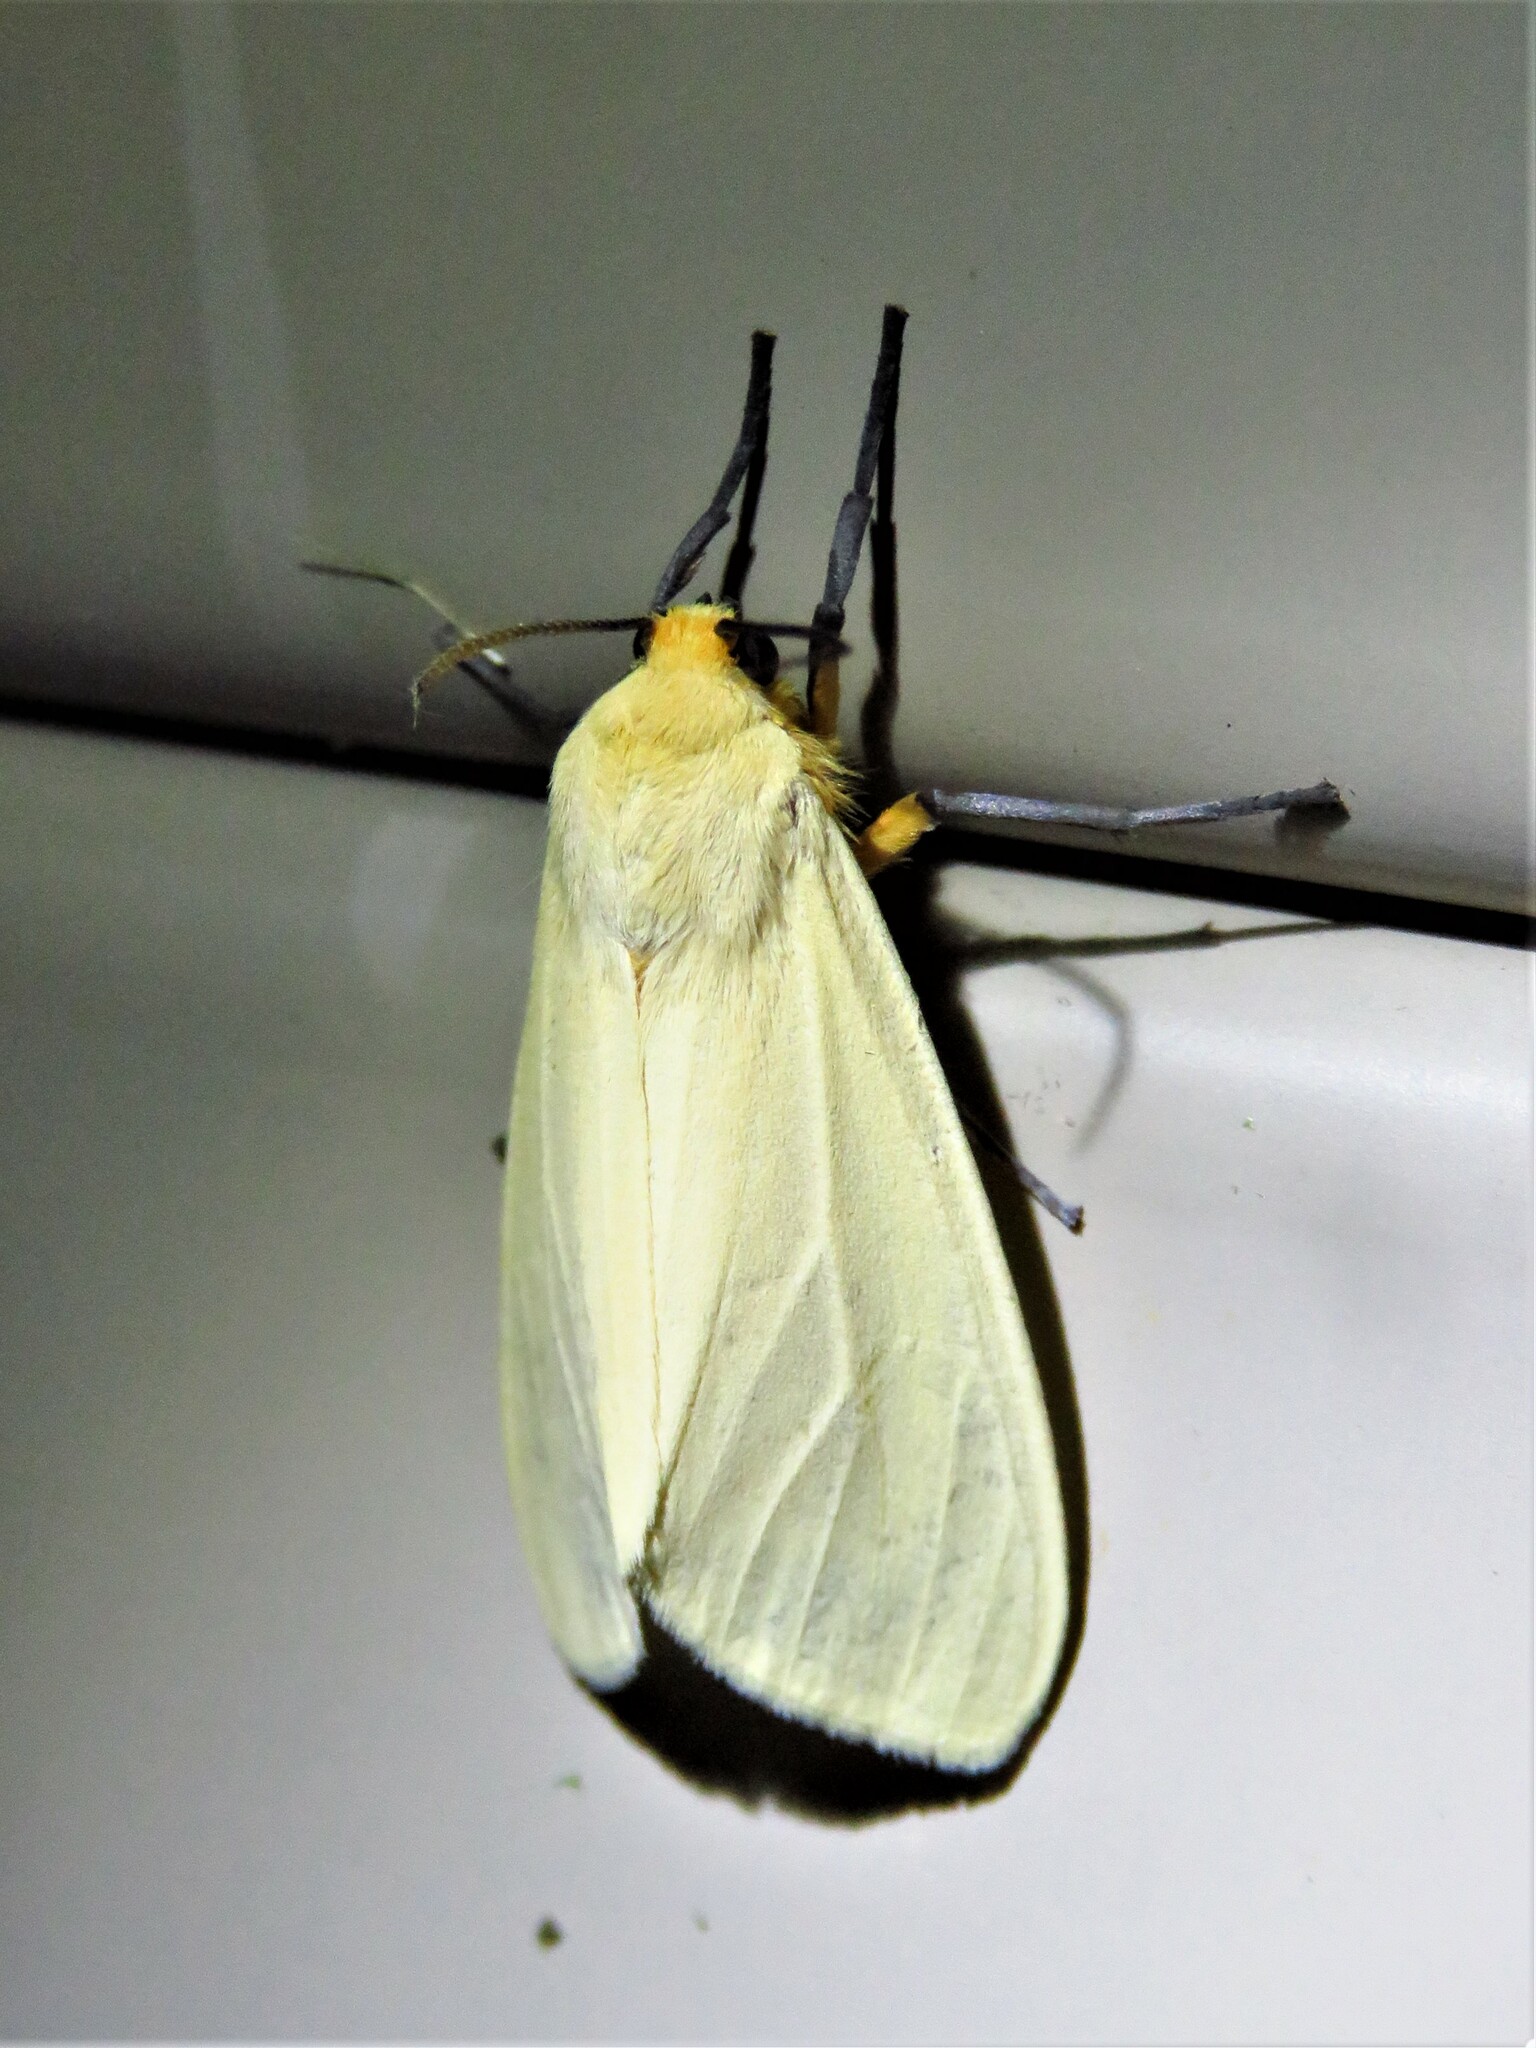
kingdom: Animalia
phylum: Arthropoda
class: Insecta
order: Lepidoptera
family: Erebidae
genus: Pareuchaetes
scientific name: Pareuchaetes insulata
